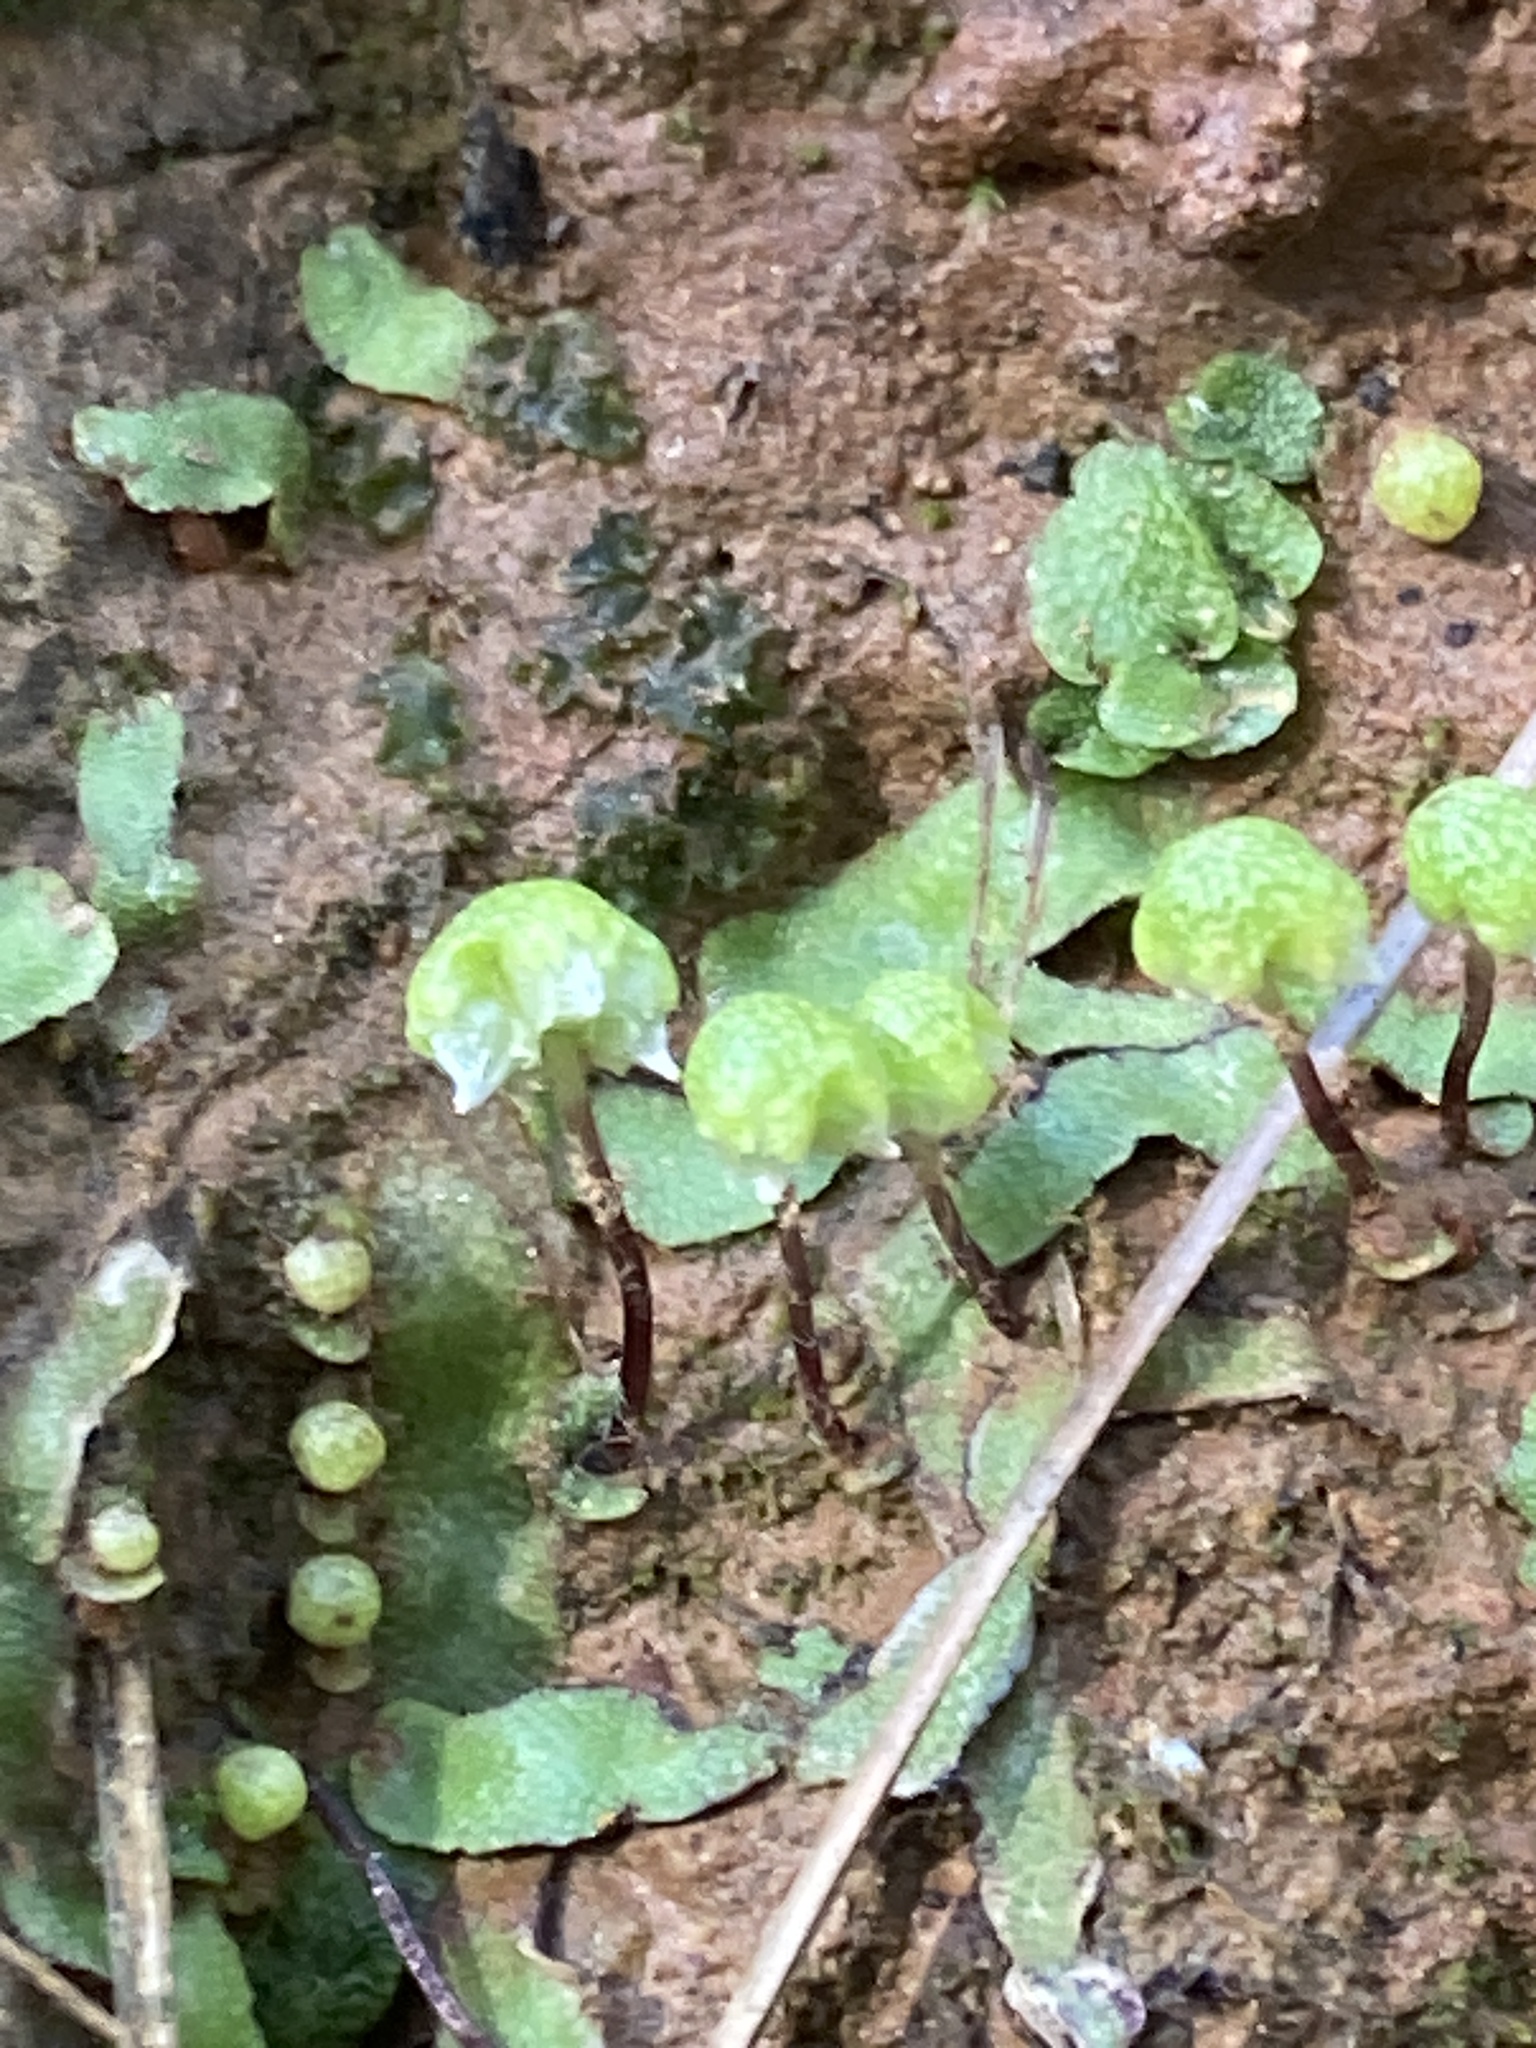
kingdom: Plantae
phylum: Marchantiophyta
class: Marchantiopsida
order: Marchantiales
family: Aytoniaceae
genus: Asterella
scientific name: Asterella bolanderi
